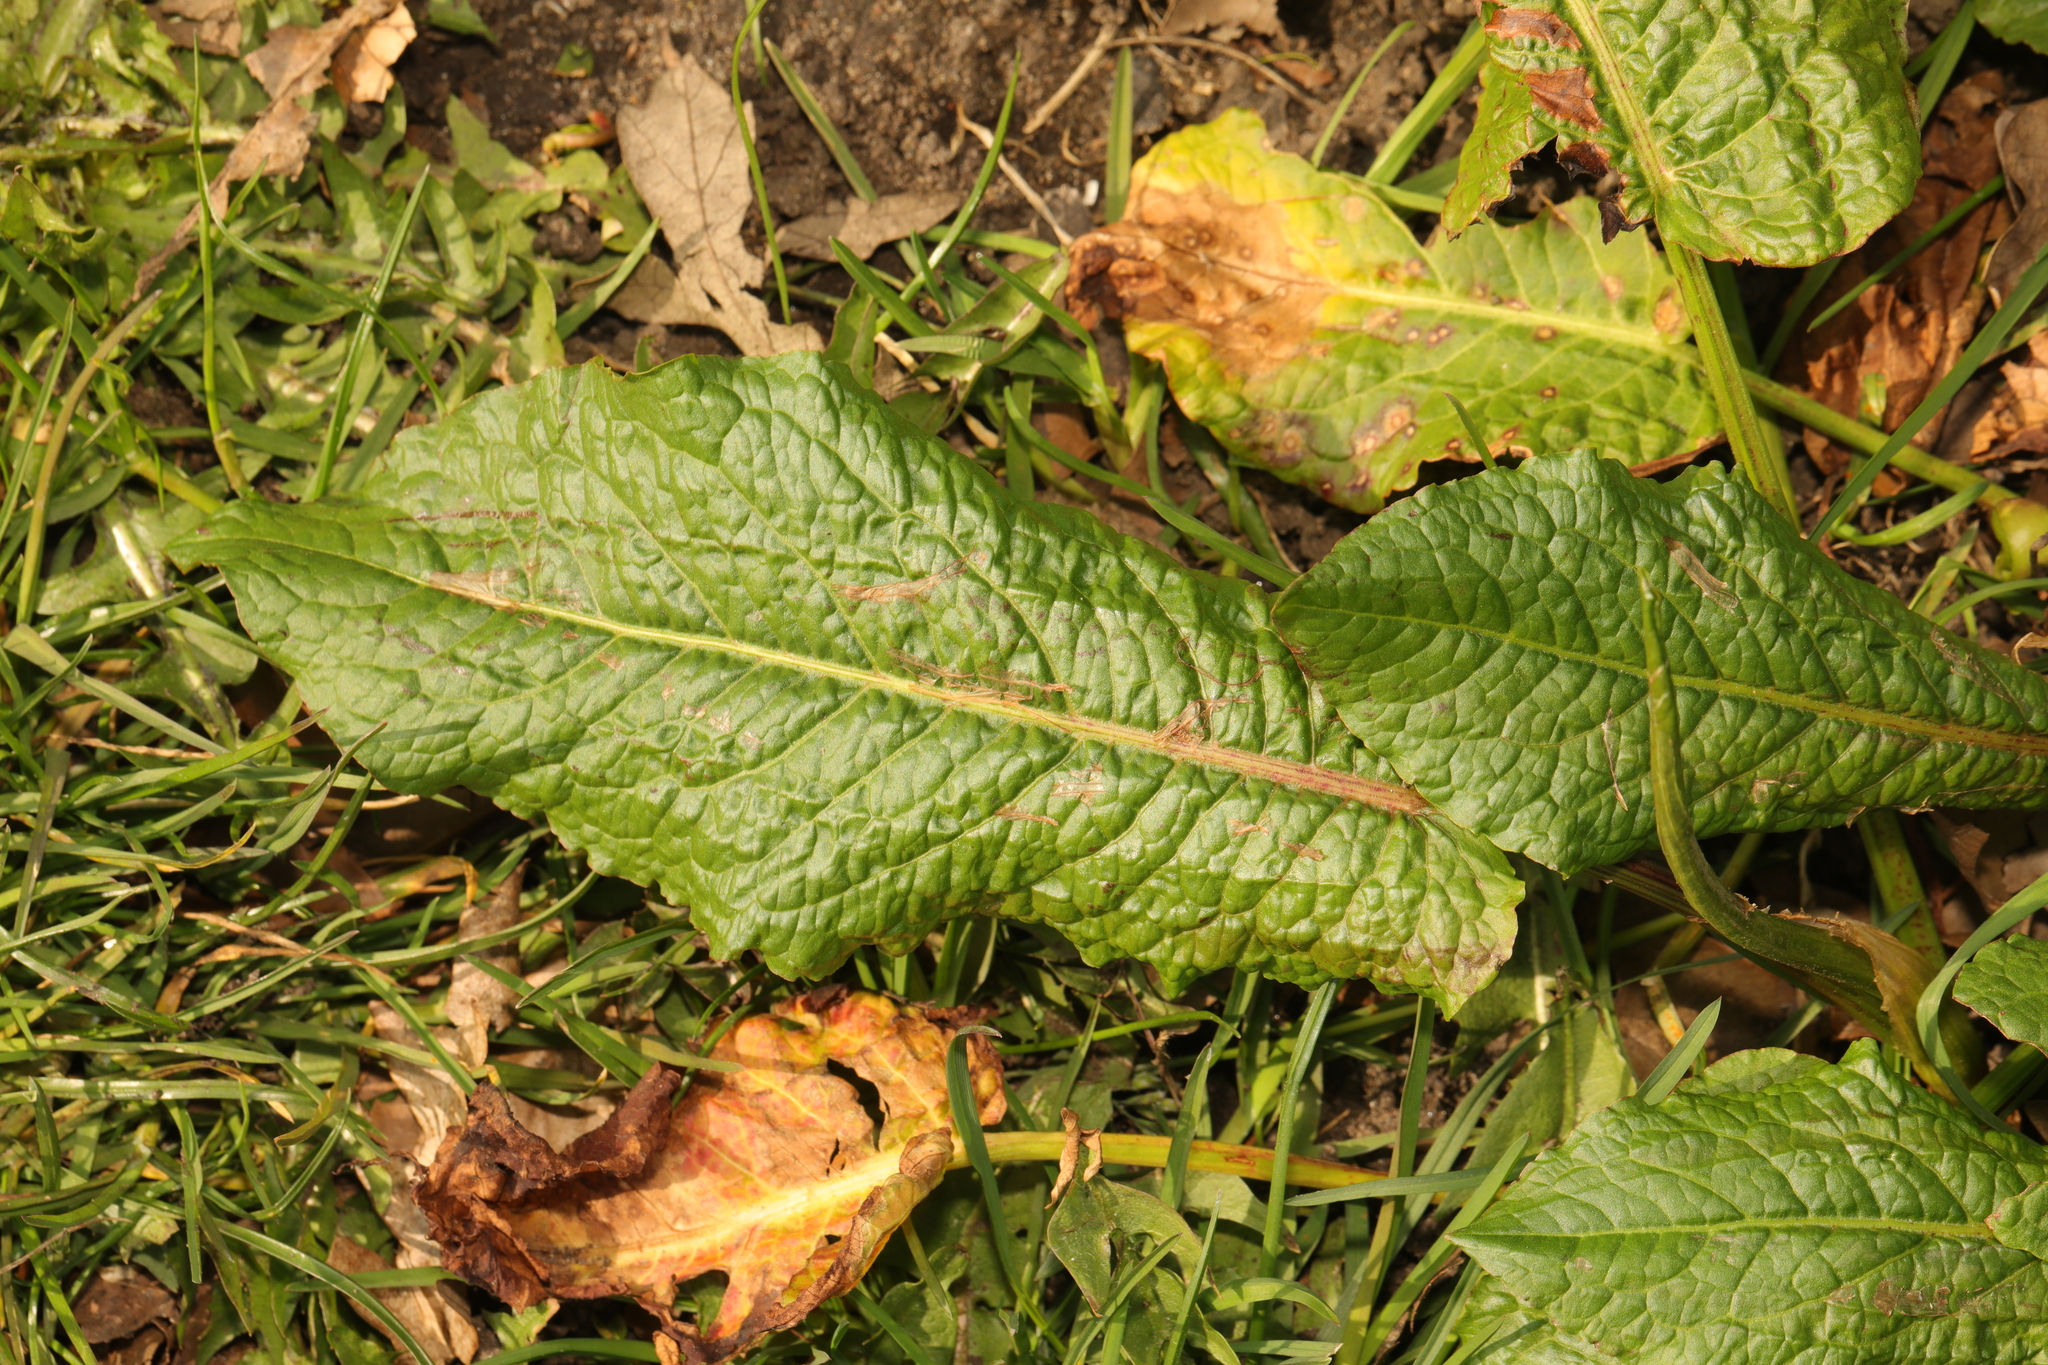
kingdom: Plantae
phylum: Tracheophyta
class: Magnoliopsida
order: Caryophyllales
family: Polygonaceae
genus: Rumex
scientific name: Rumex obtusifolius
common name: Bitter dock
